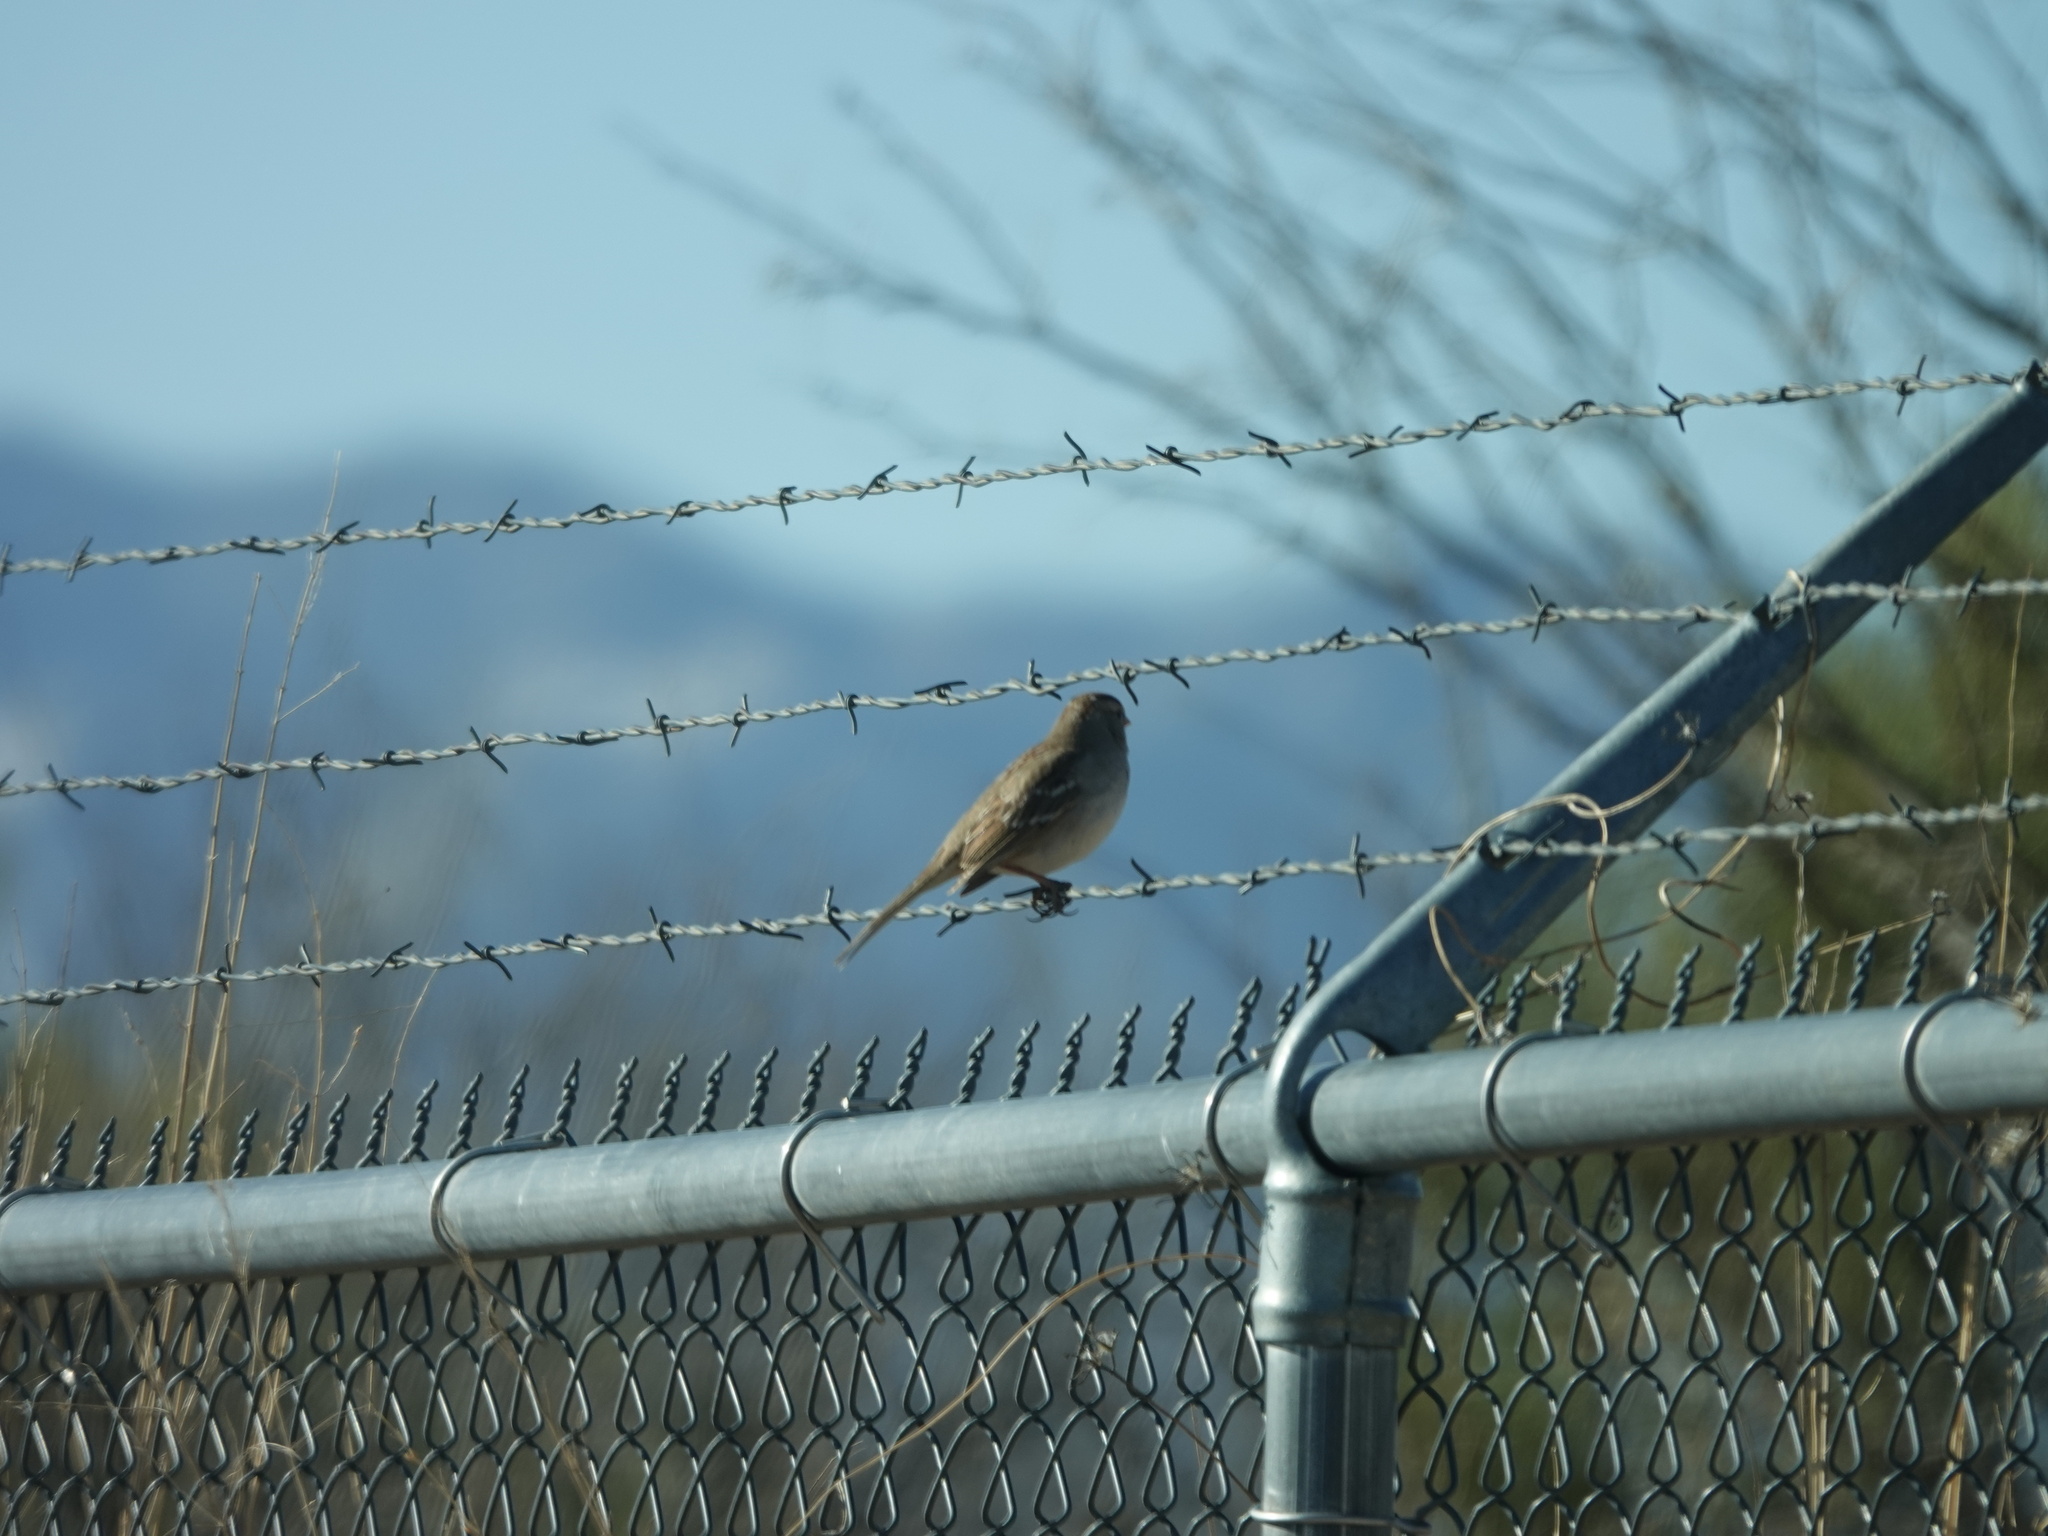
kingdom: Animalia
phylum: Chordata
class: Aves
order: Passeriformes
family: Passerellidae
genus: Zonotrichia
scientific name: Zonotrichia leucophrys
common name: White-crowned sparrow
